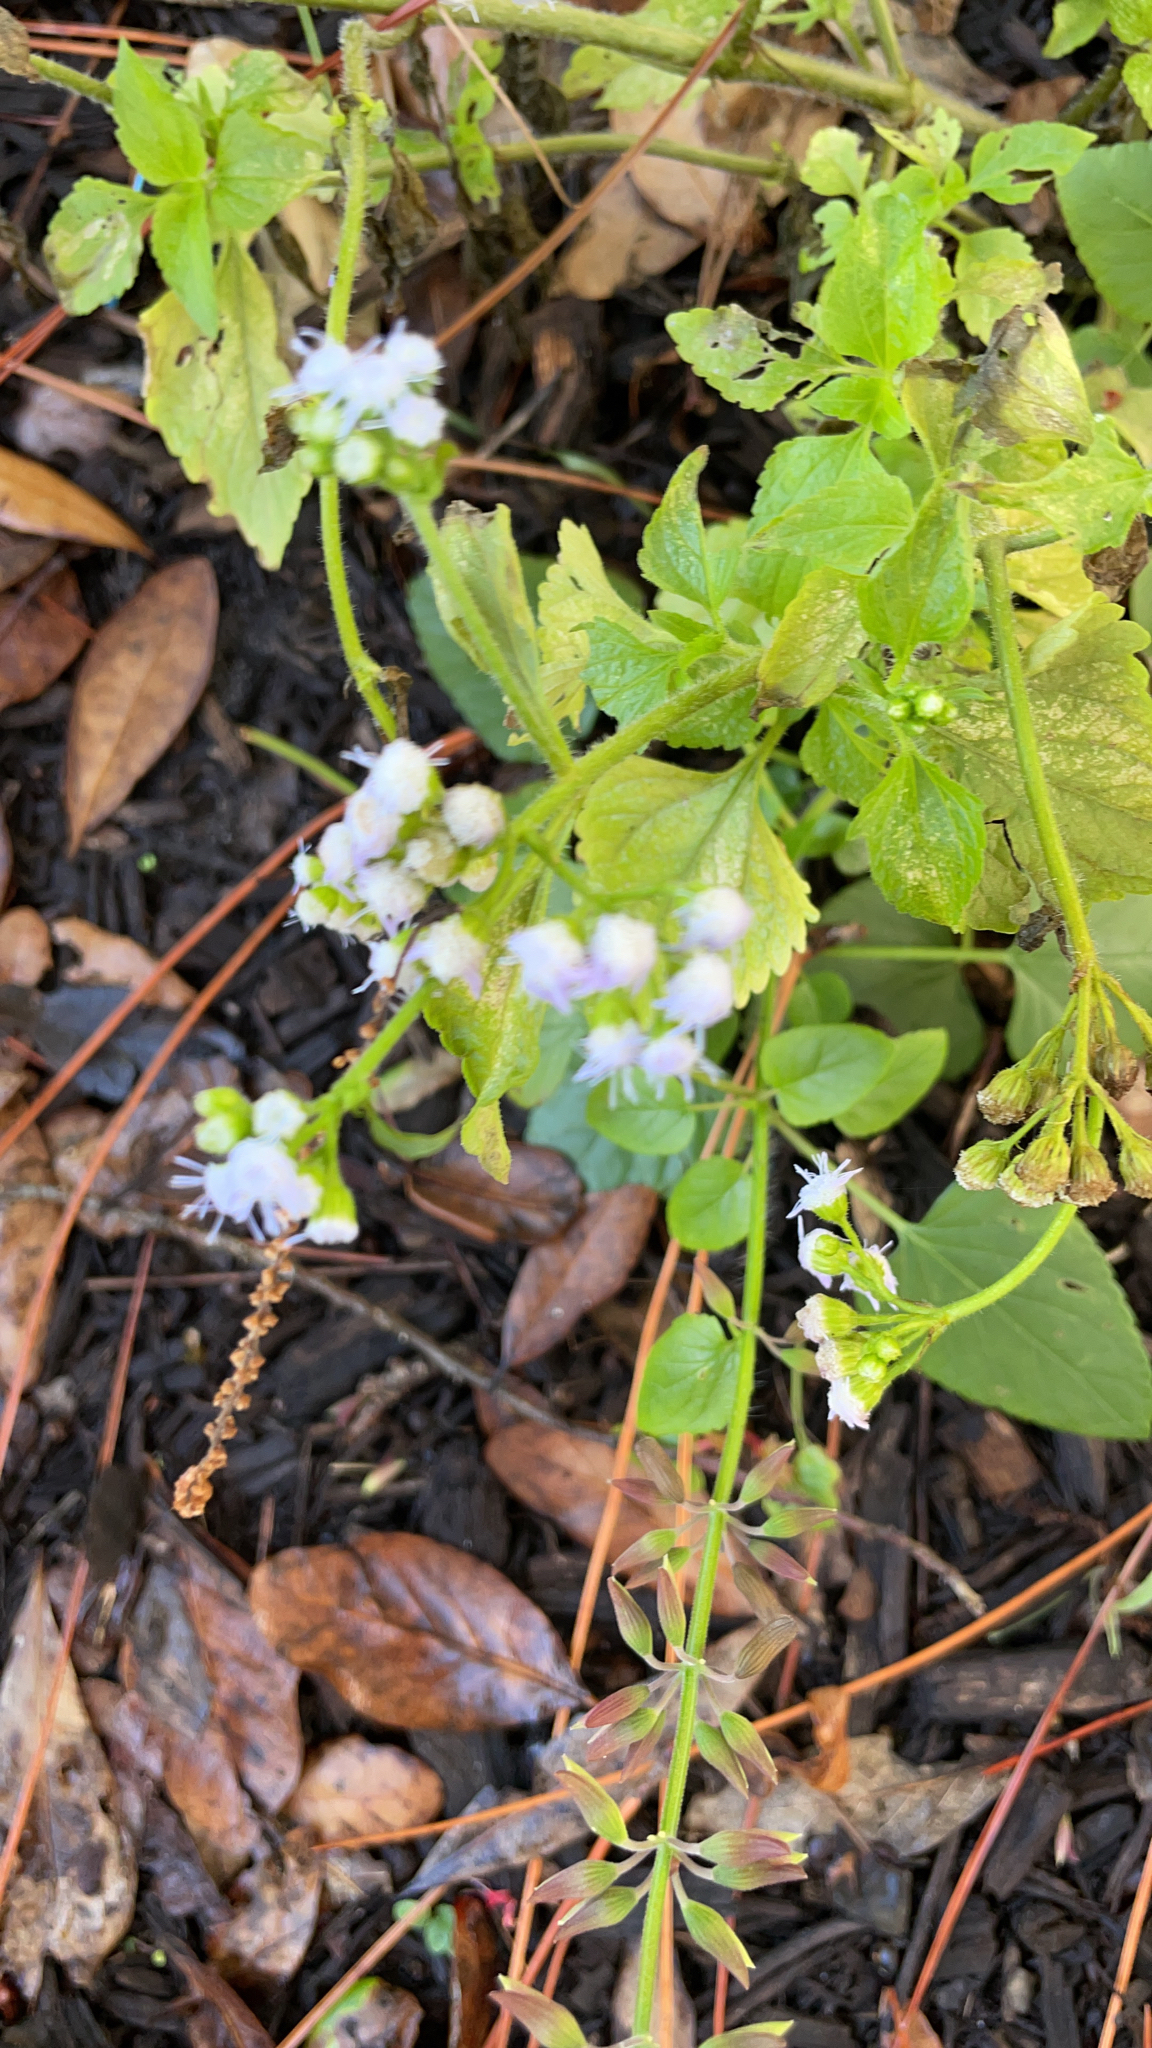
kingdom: Plantae
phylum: Tracheophyta
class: Magnoliopsida
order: Asterales
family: Asteraceae
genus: Ageratum
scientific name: Ageratum conyzoides
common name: Tropical whiteweed
